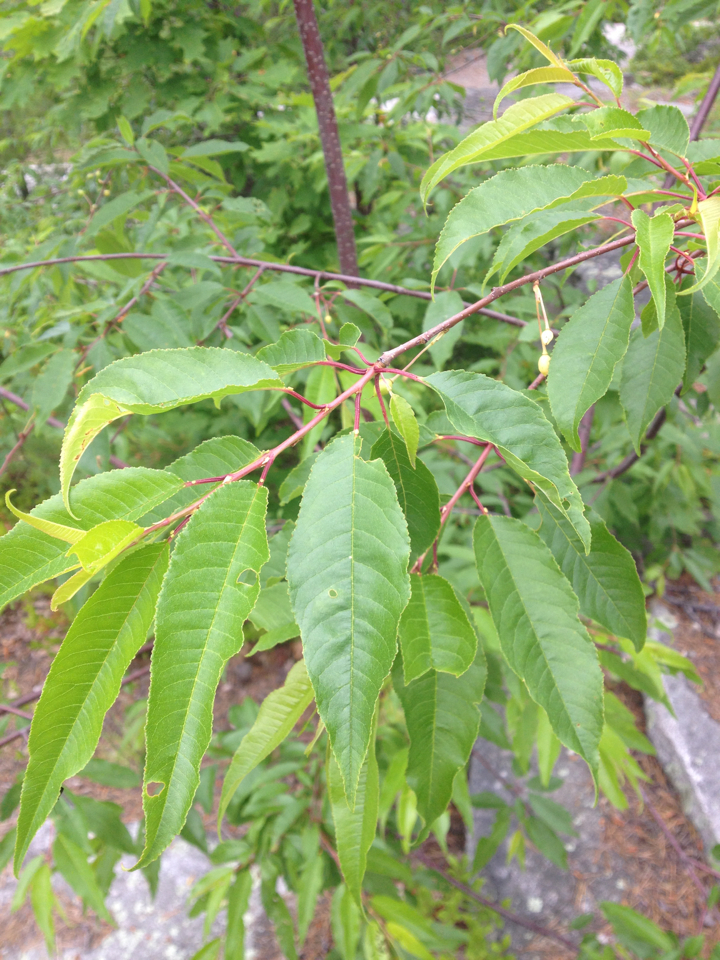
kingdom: Plantae
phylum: Tracheophyta
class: Magnoliopsida
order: Rosales
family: Rosaceae
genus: Prunus
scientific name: Prunus pensylvanica
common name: Pin cherry
